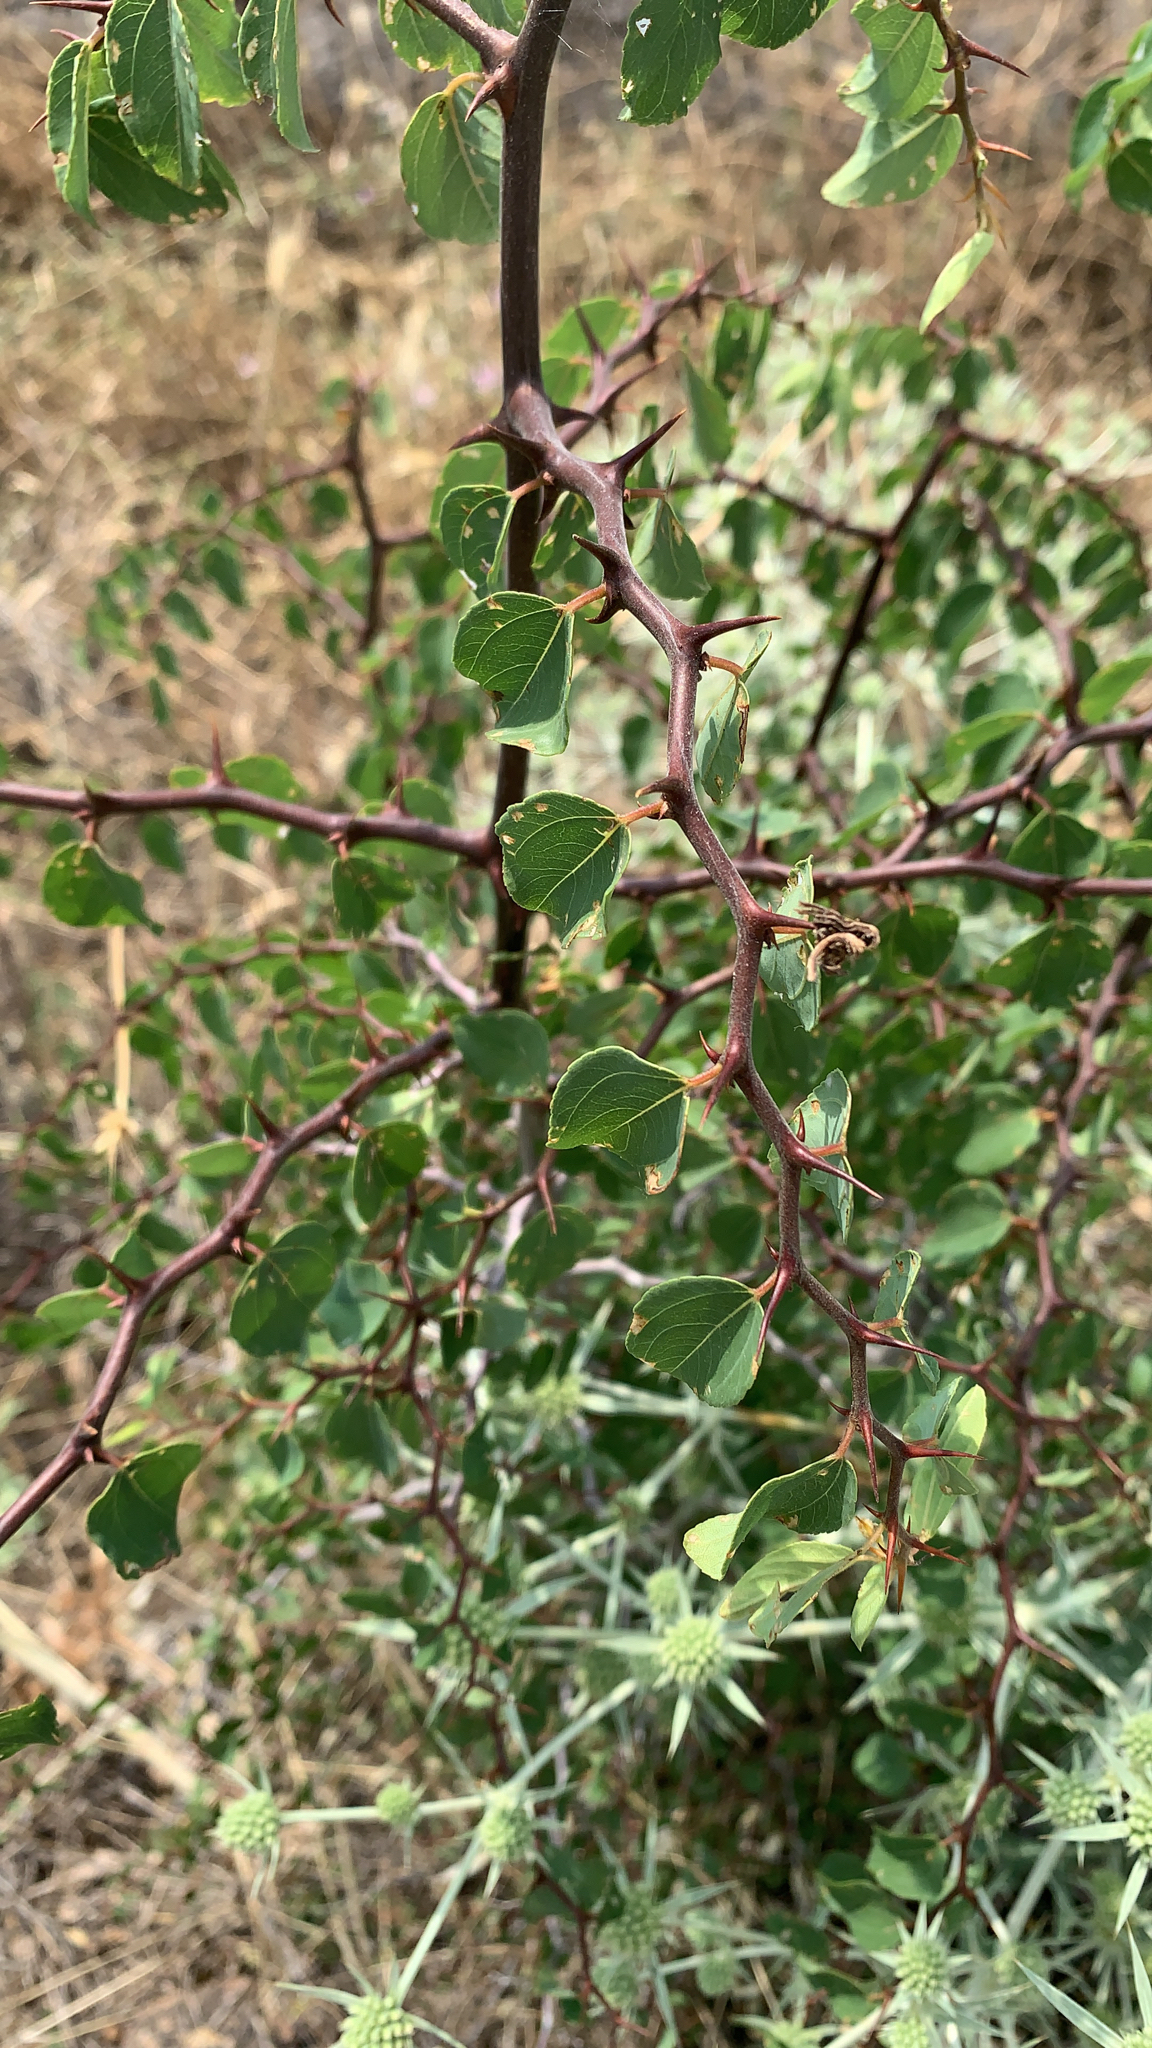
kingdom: Plantae
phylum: Tracheophyta
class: Magnoliopsida
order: Rosales
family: Rhamnaceae
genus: Paliurus
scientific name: Paliurus spina-christi
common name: Jeruselem thorn
